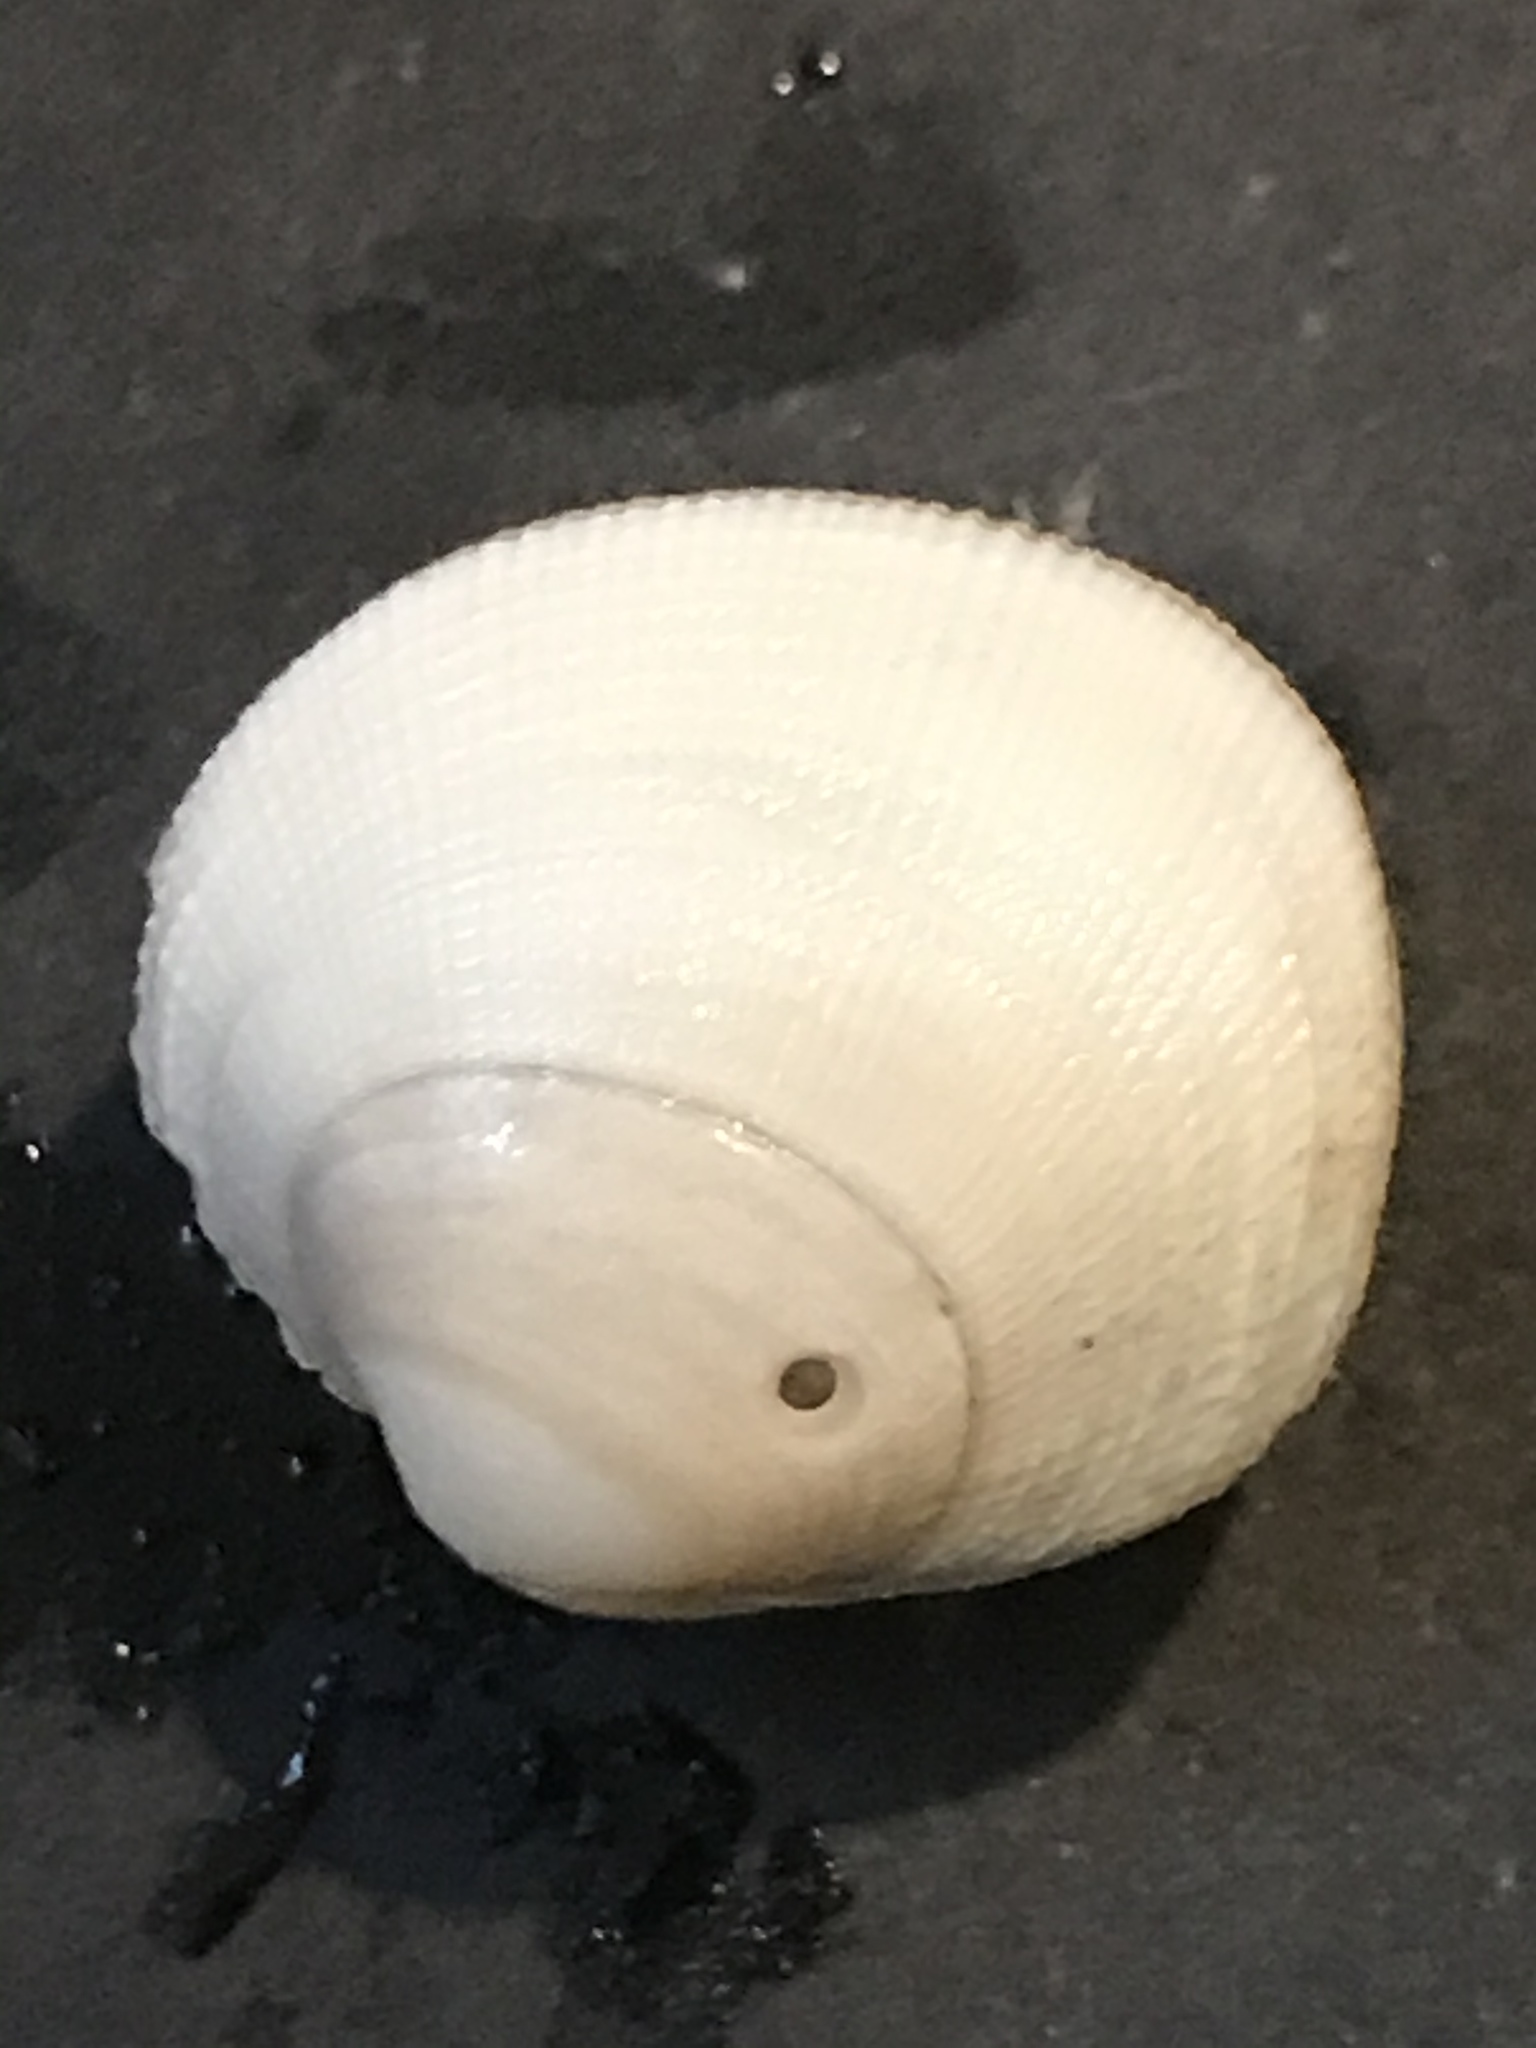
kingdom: Animalia
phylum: Mollusca
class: Bivalvia
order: Venerida
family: Veneridae
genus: Leukoma
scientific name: Leukoma staminea
